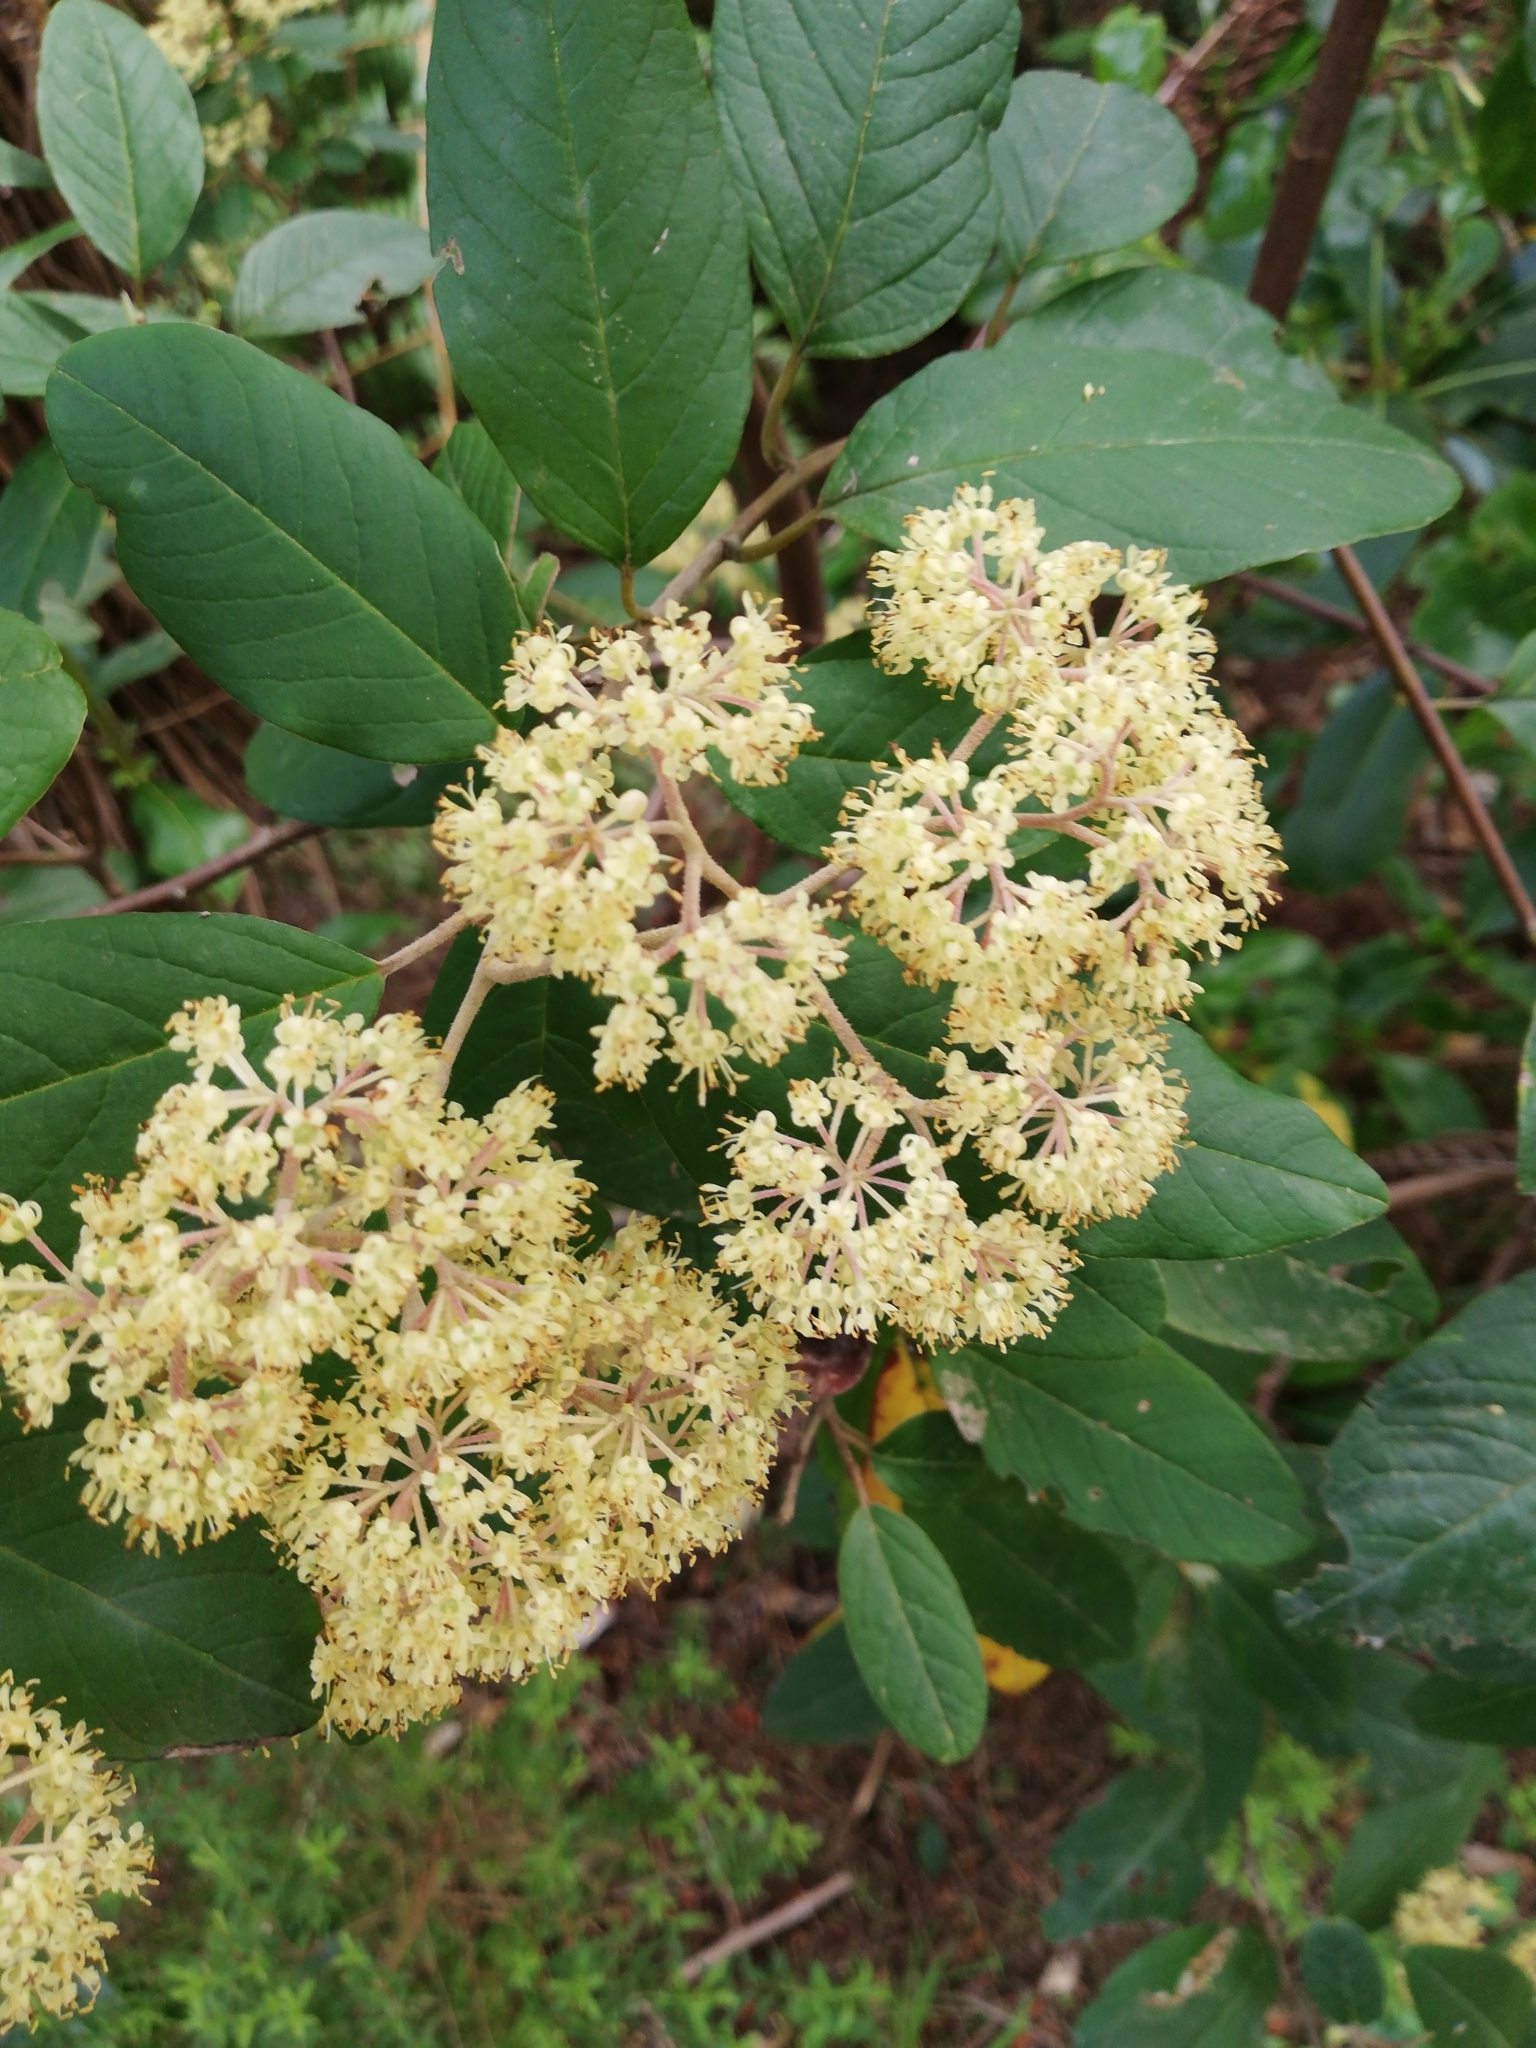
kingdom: Plantae
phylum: Tracheophyta
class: Magnoliopsida
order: Rosales
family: Rhamnaceae
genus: Pomaderris
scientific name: Pomaderris kumeraho
